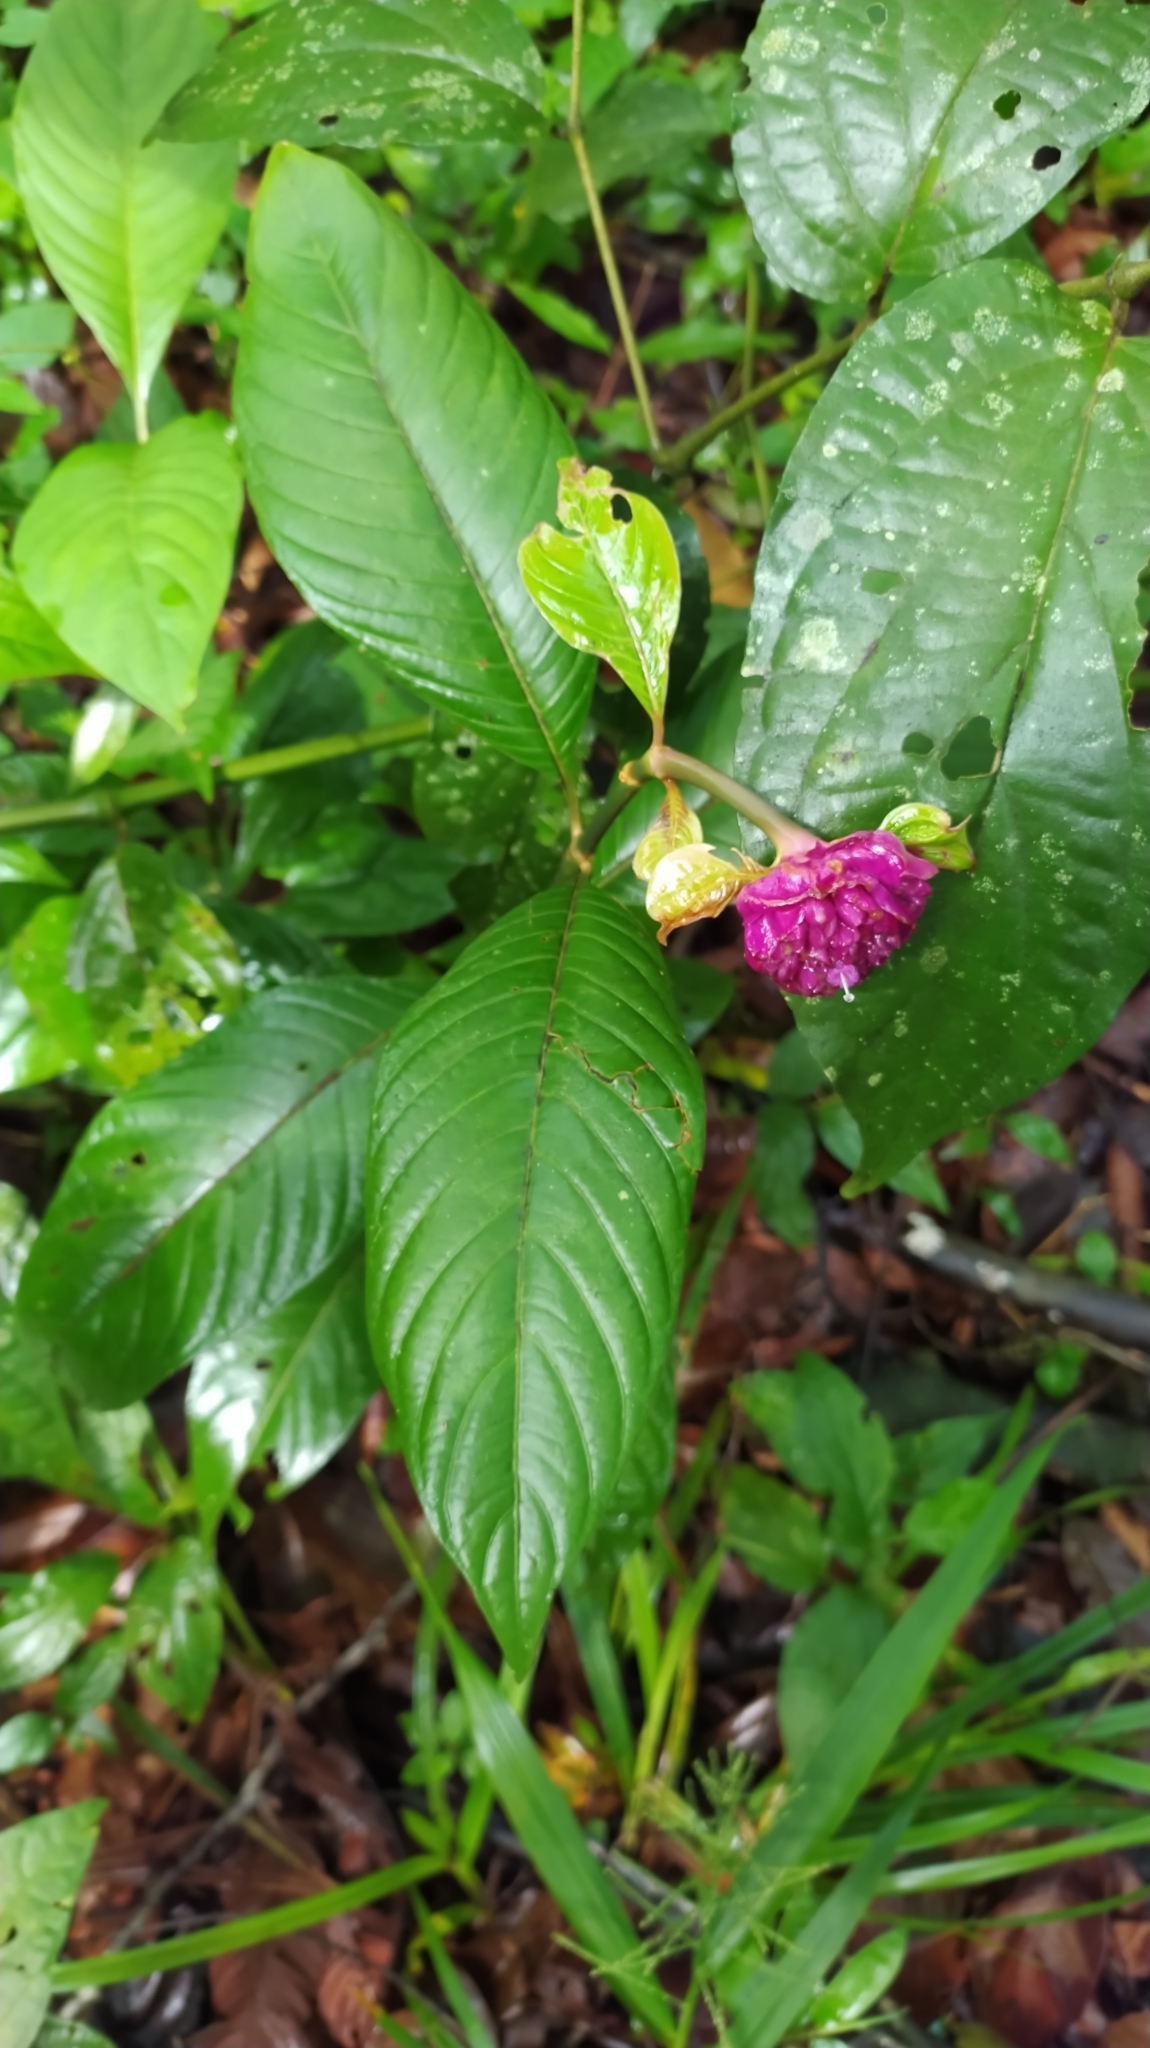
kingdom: Plantae
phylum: Tracheophyta
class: Magnoliopsida
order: Gentianales
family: Rubiaceae
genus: Palicourea
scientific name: Palicourea colorata
